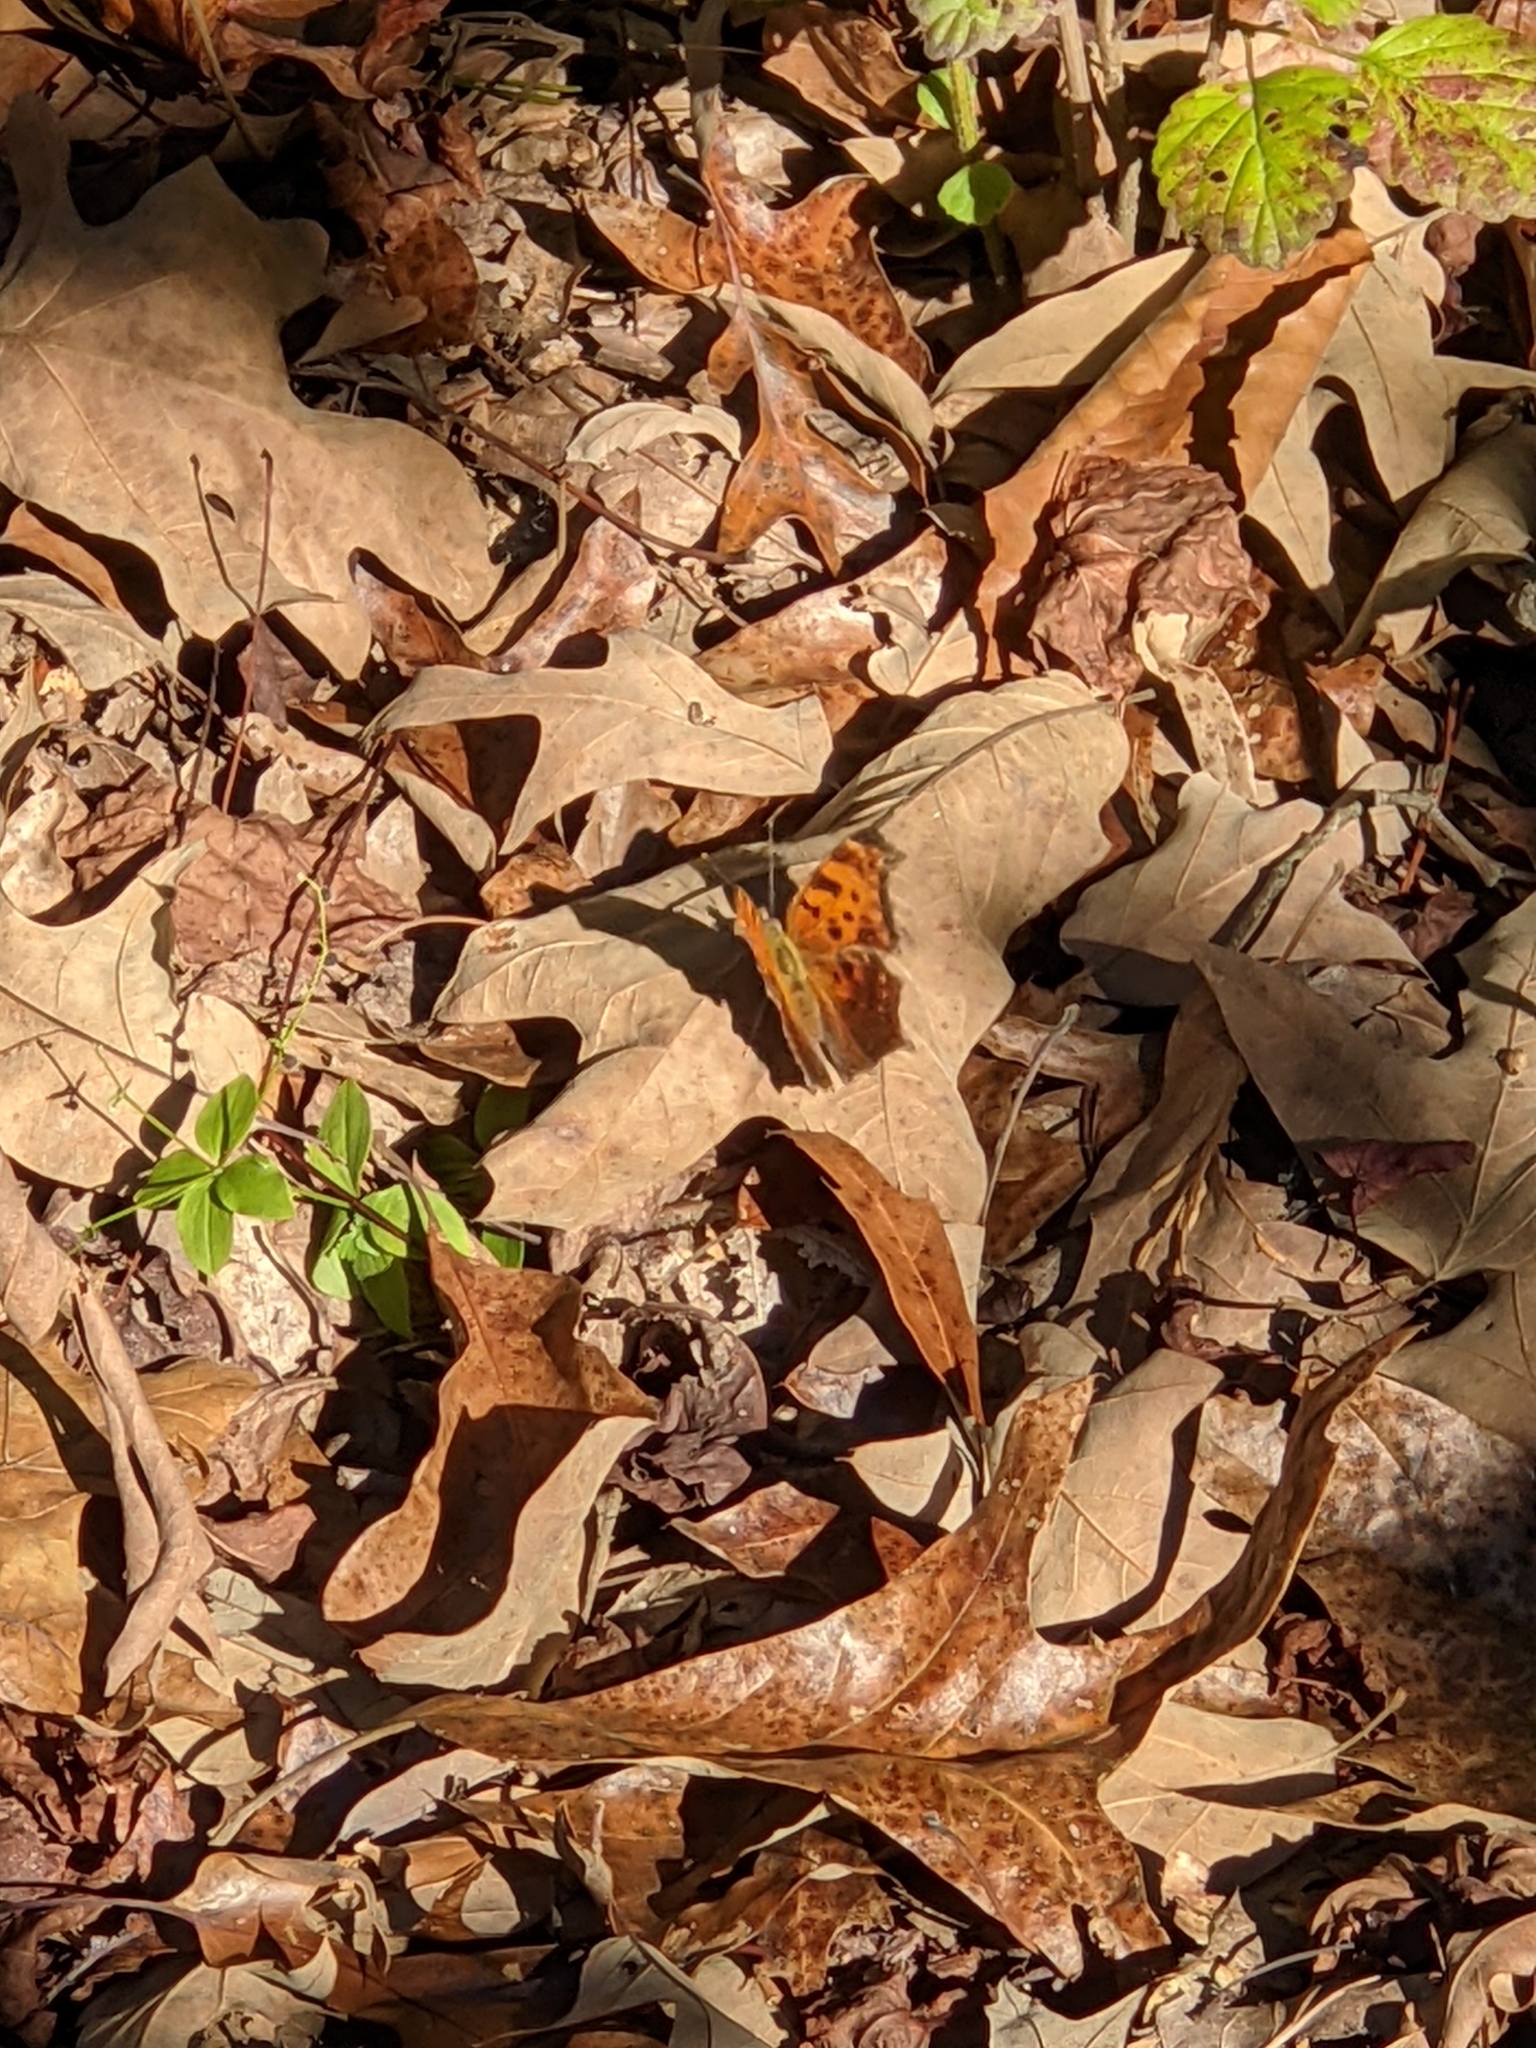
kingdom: Animalia
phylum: Arthropoda
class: Insecta
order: Lepidoptera
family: Nymphalidae
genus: Polygonia
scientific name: Polygonia comma
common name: Eastern comma
